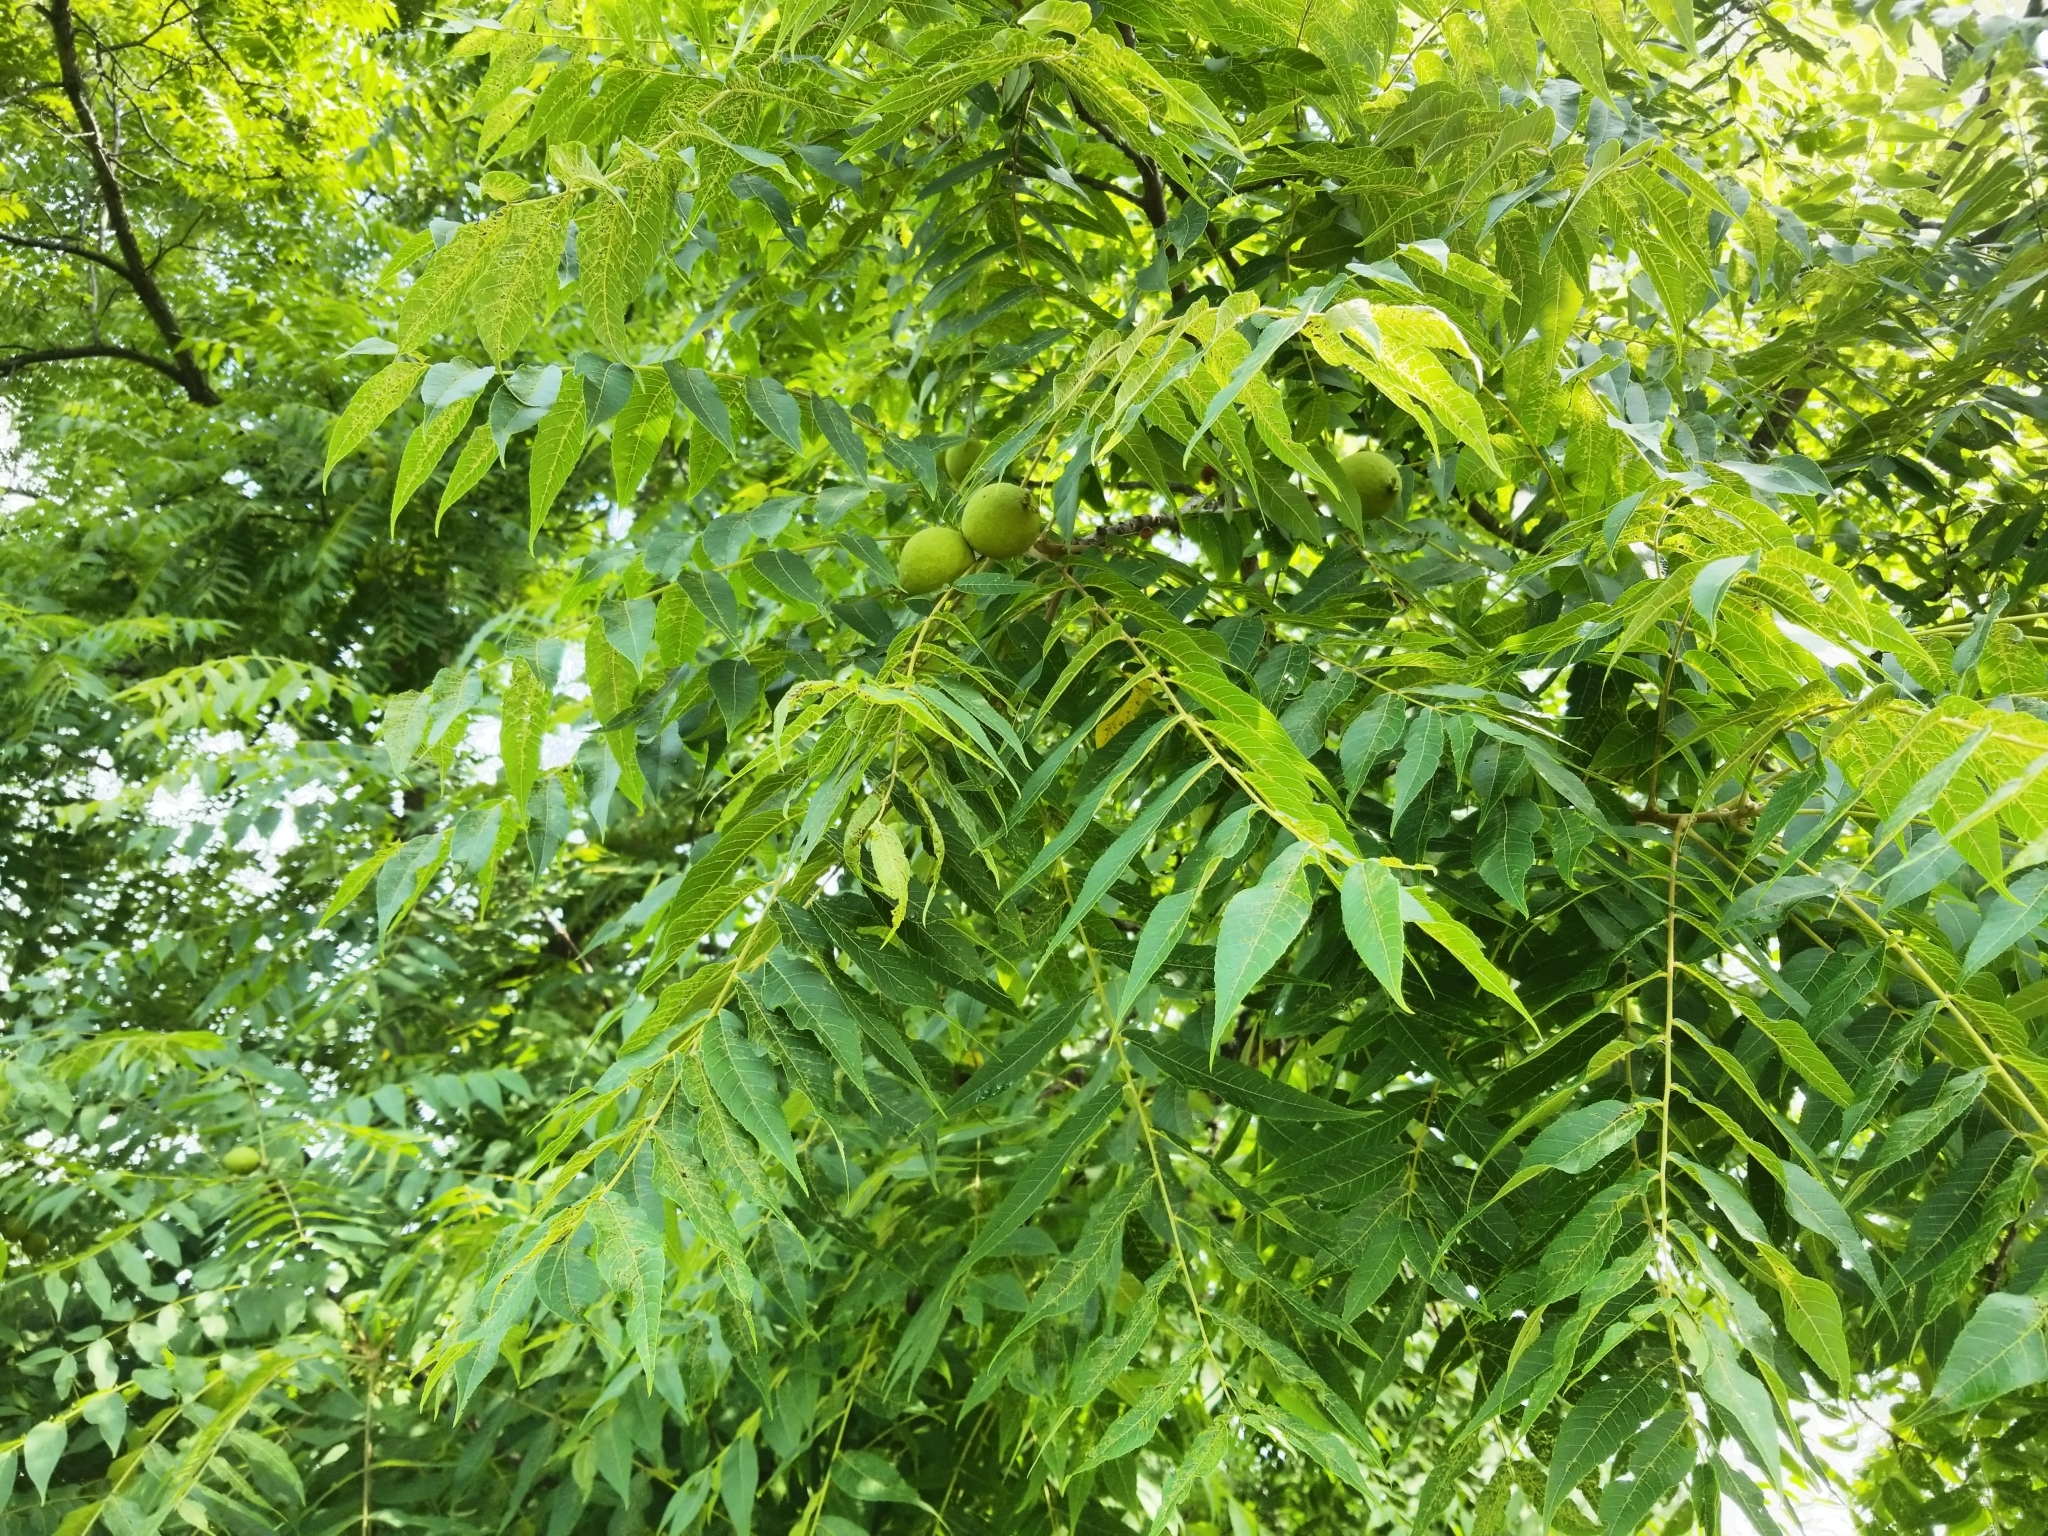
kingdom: Plantae
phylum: Tracheophyta
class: Magnoliopsida
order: Fagales
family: Juglandaceae
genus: Juglans
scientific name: Juglans nigra
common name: Black walnut
